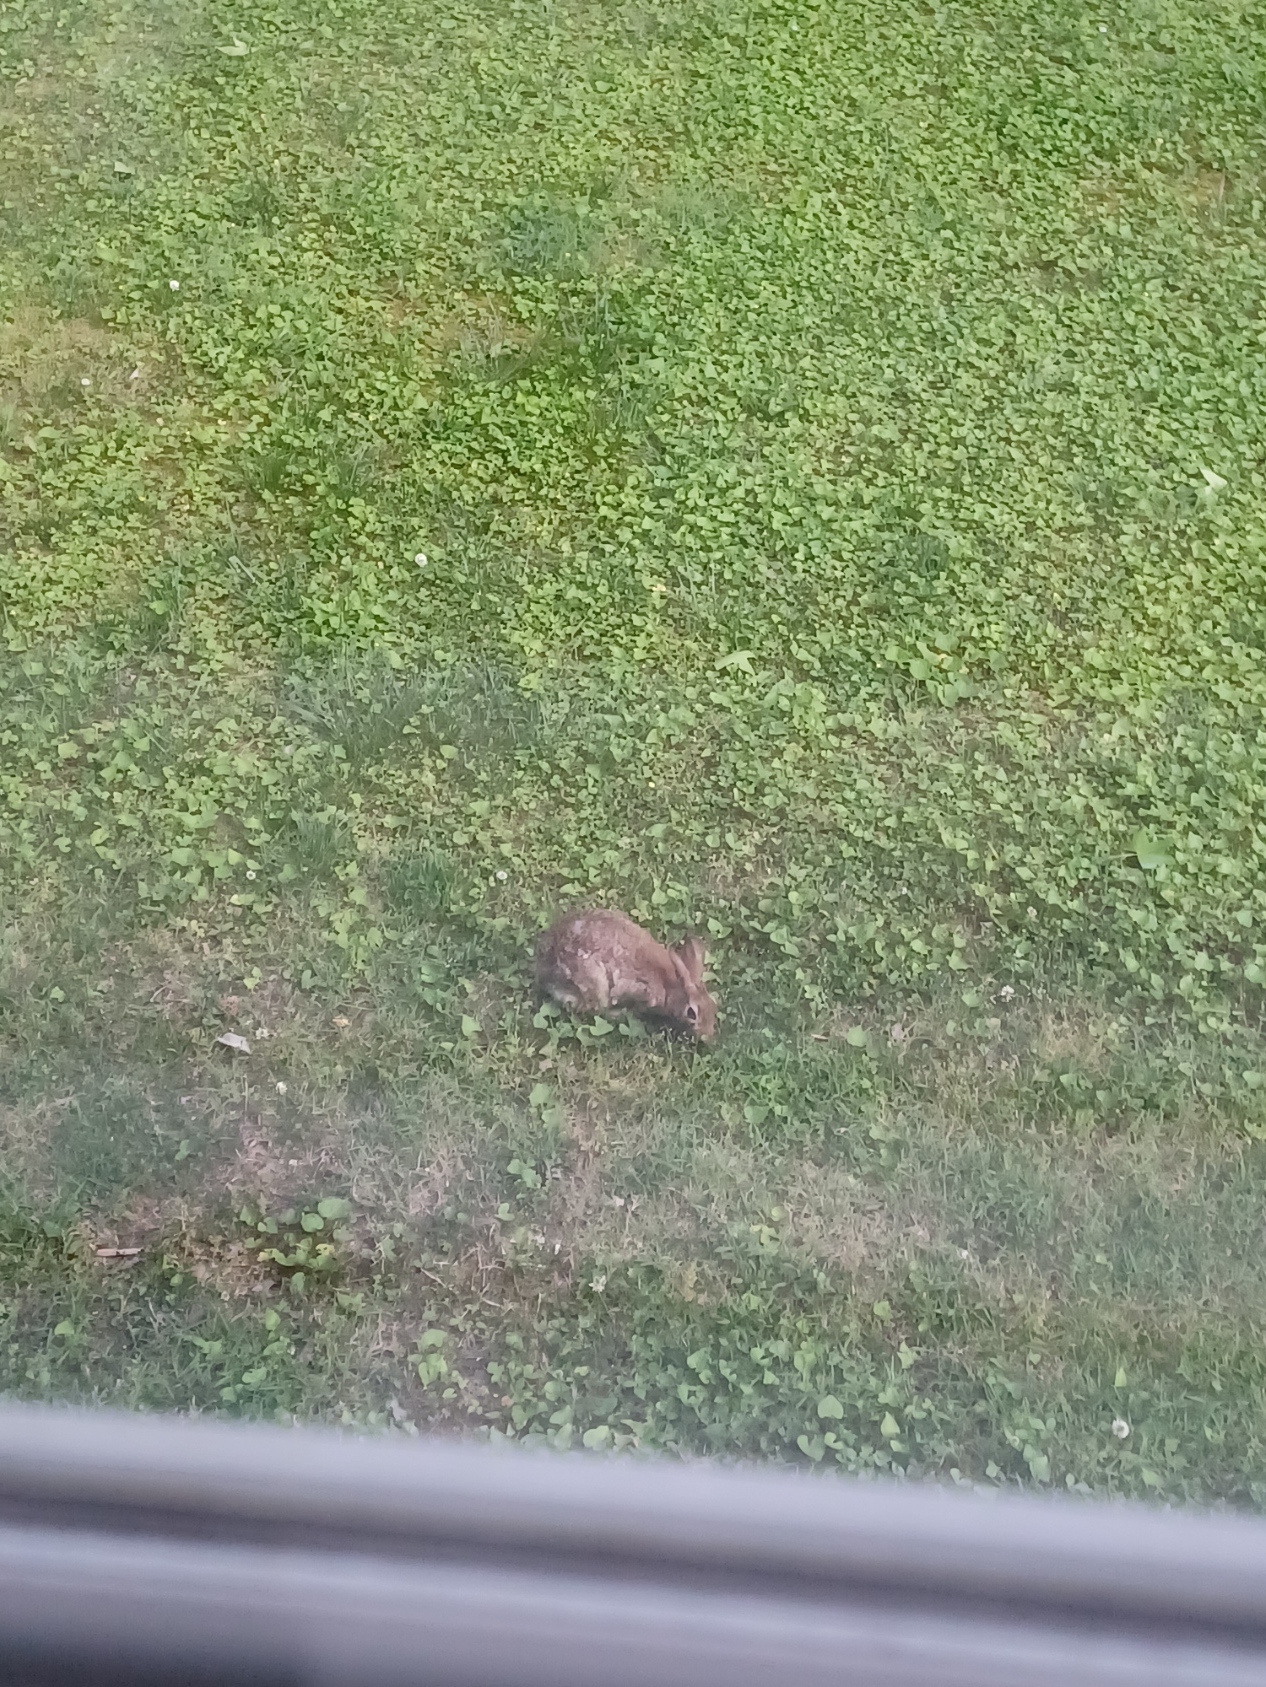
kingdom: Animalia
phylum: Chordata
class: Mammalia
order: Lagomorpha
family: Leporidae
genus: Sylvilagus
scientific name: Sylvilagus floridanus
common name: Eastern cottontail
